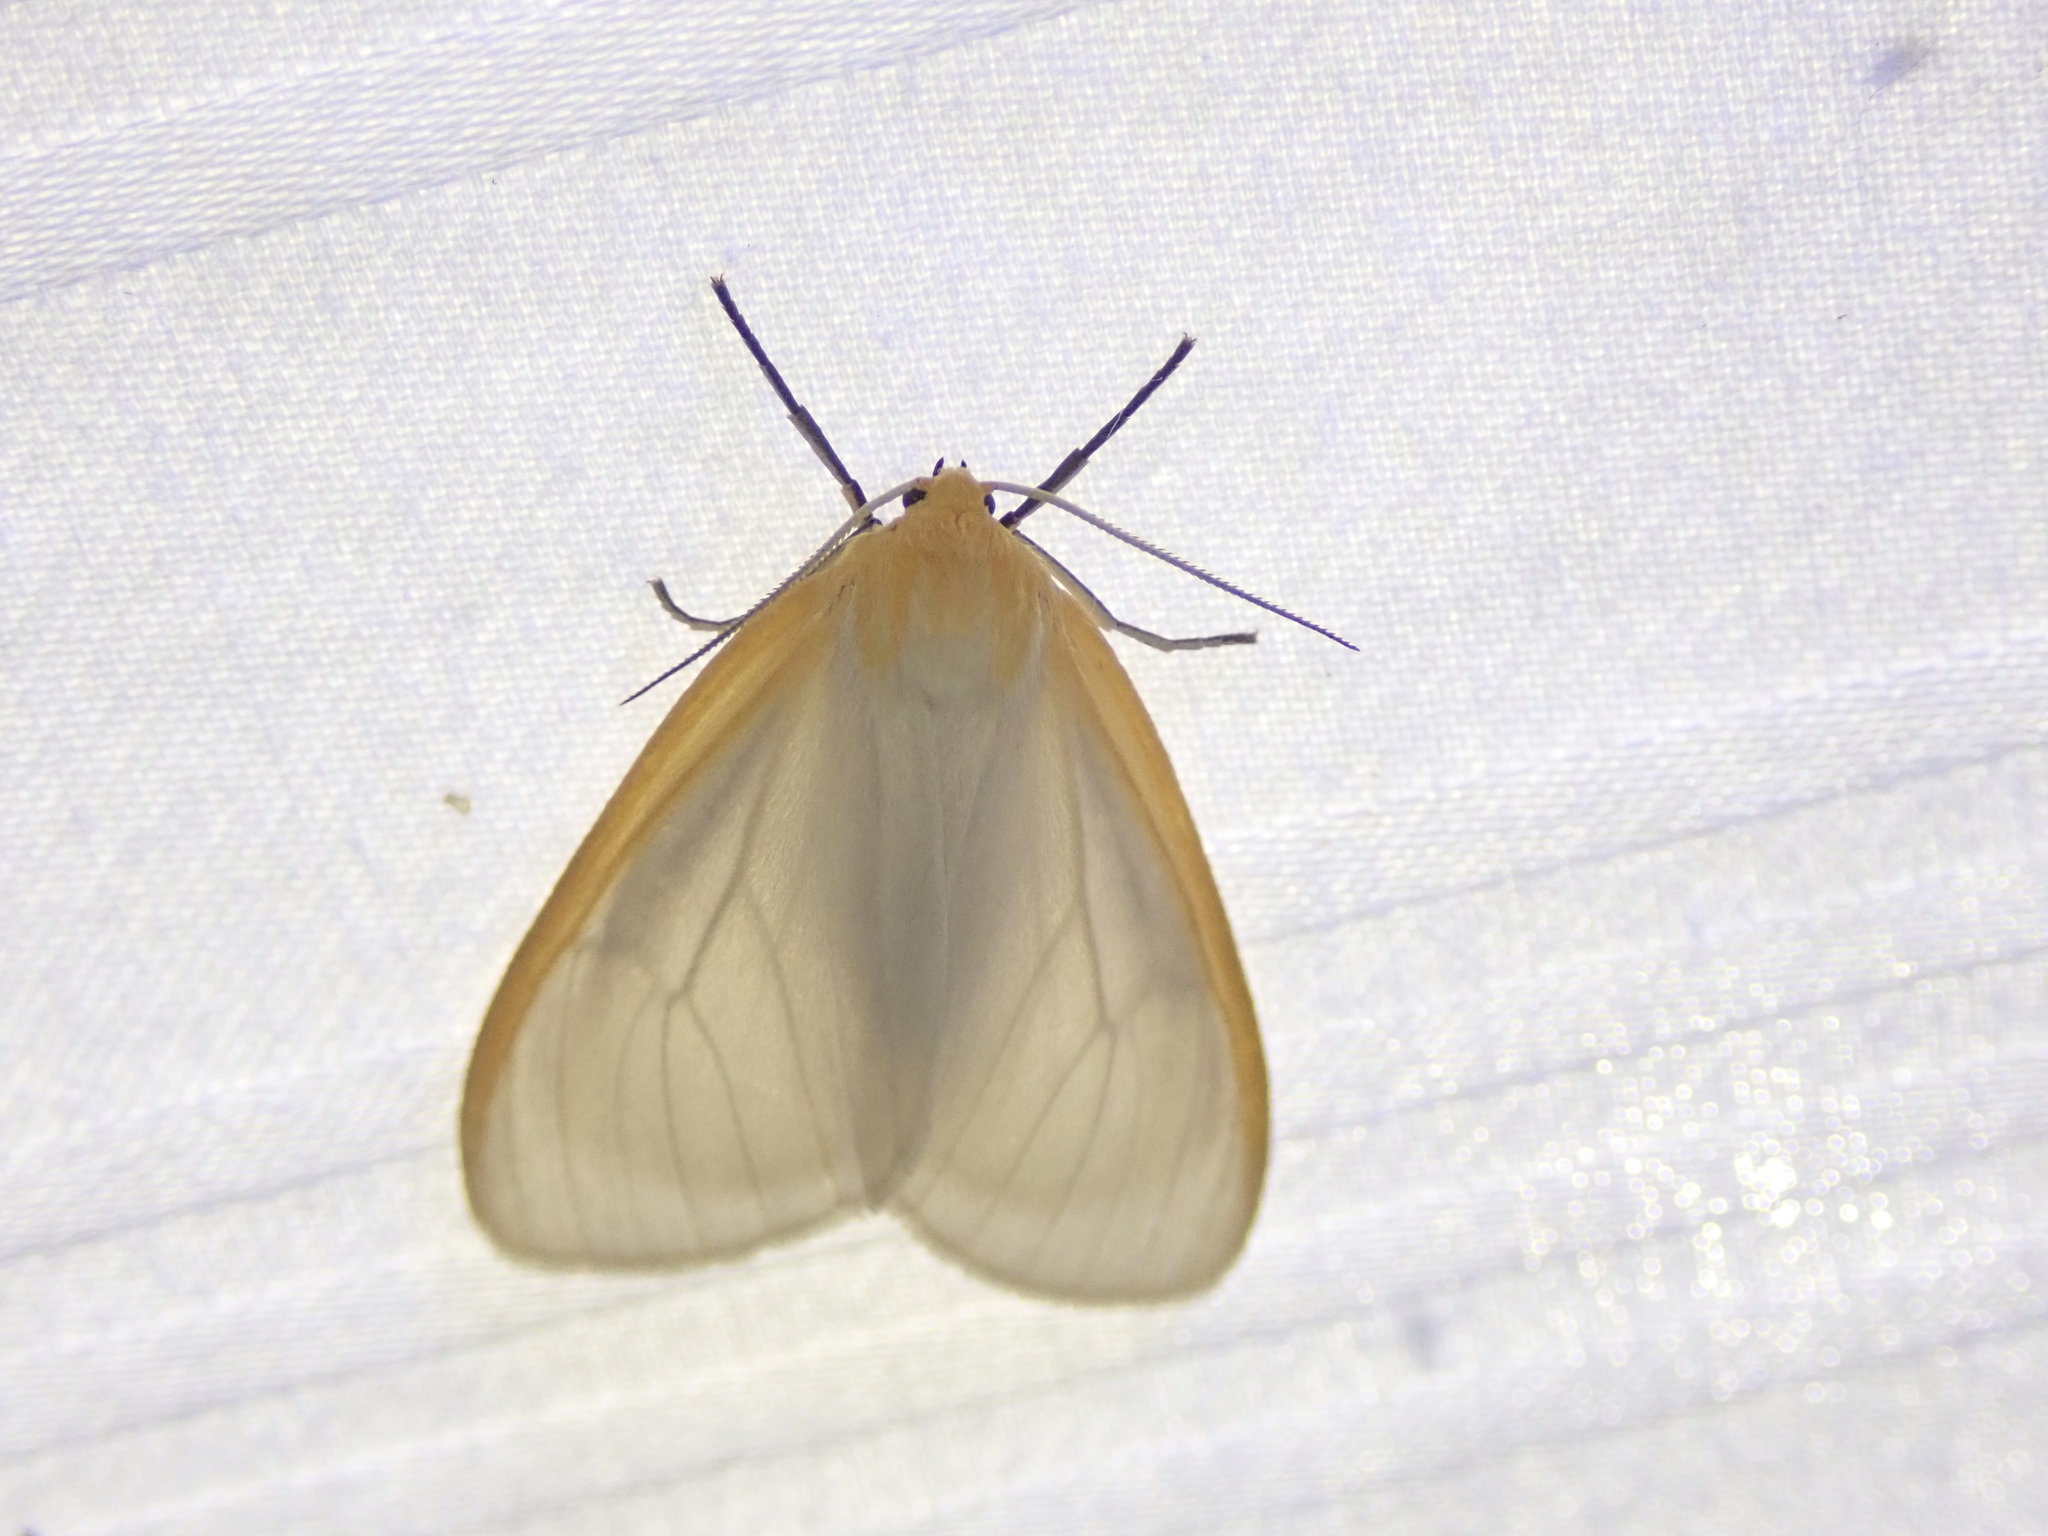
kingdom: Animalia
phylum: Arthropoda
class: Insecta
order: Lepidoptera
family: Erebidae
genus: Cycnia
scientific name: Cycnia tenera
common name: Delicate cycnia moth
